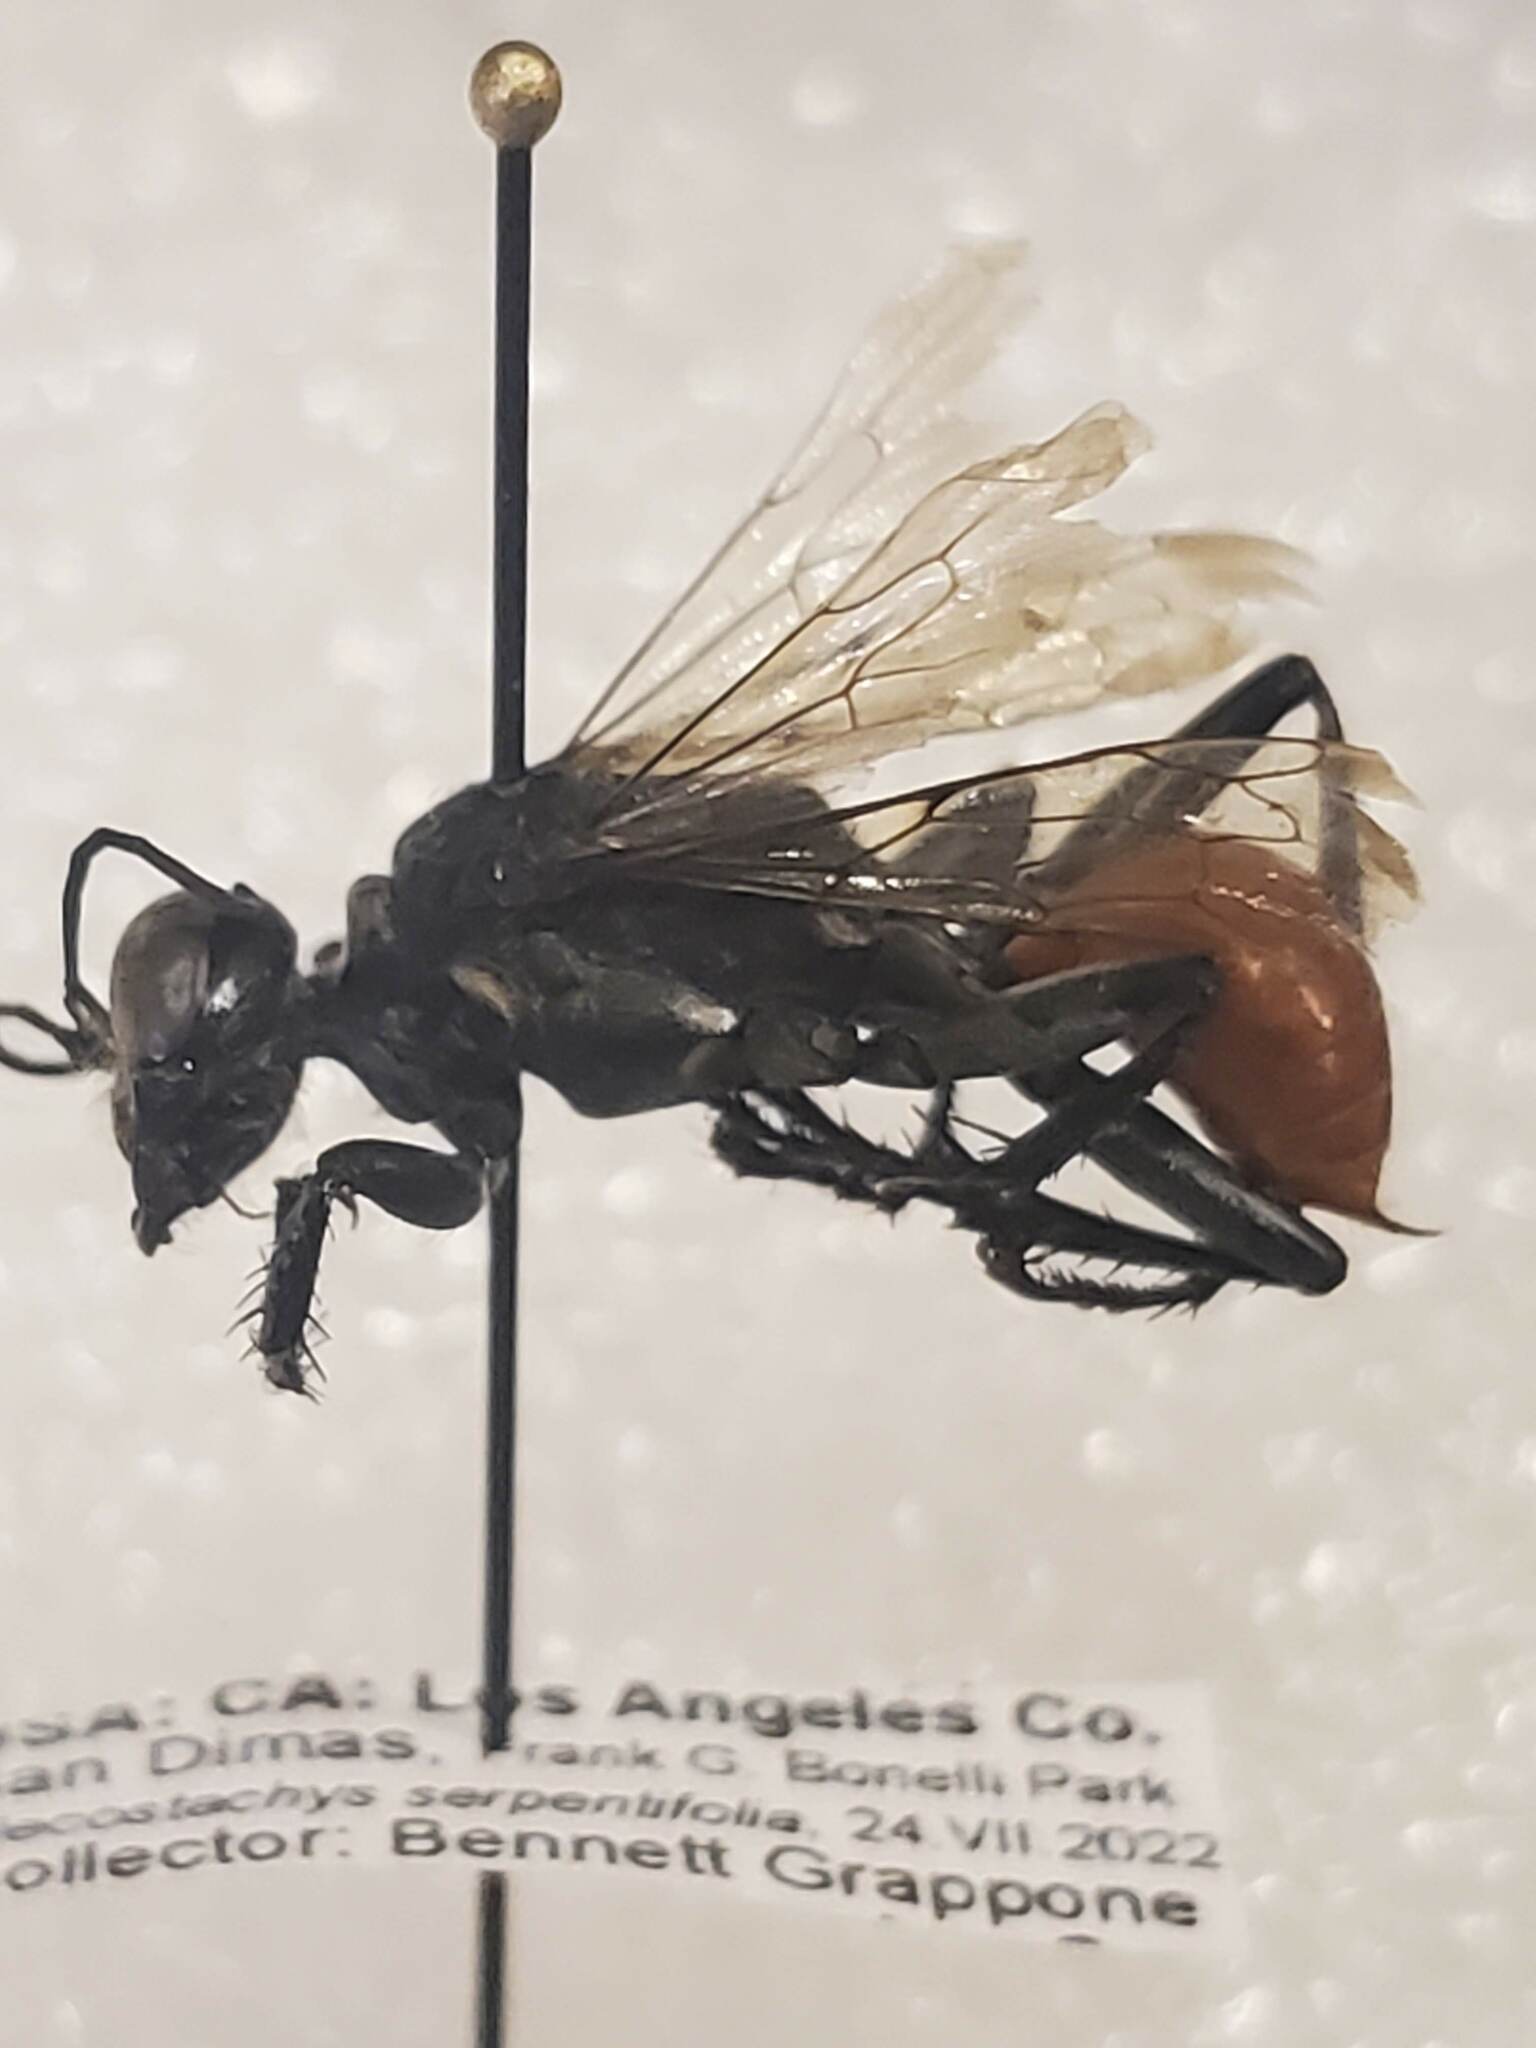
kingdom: Animalia
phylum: Arthropoda
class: Insecta
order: Hymenoptera
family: Sphecidae
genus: Prionyx
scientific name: Prionyx parkeri
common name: Parker's thread-waisted wasp
